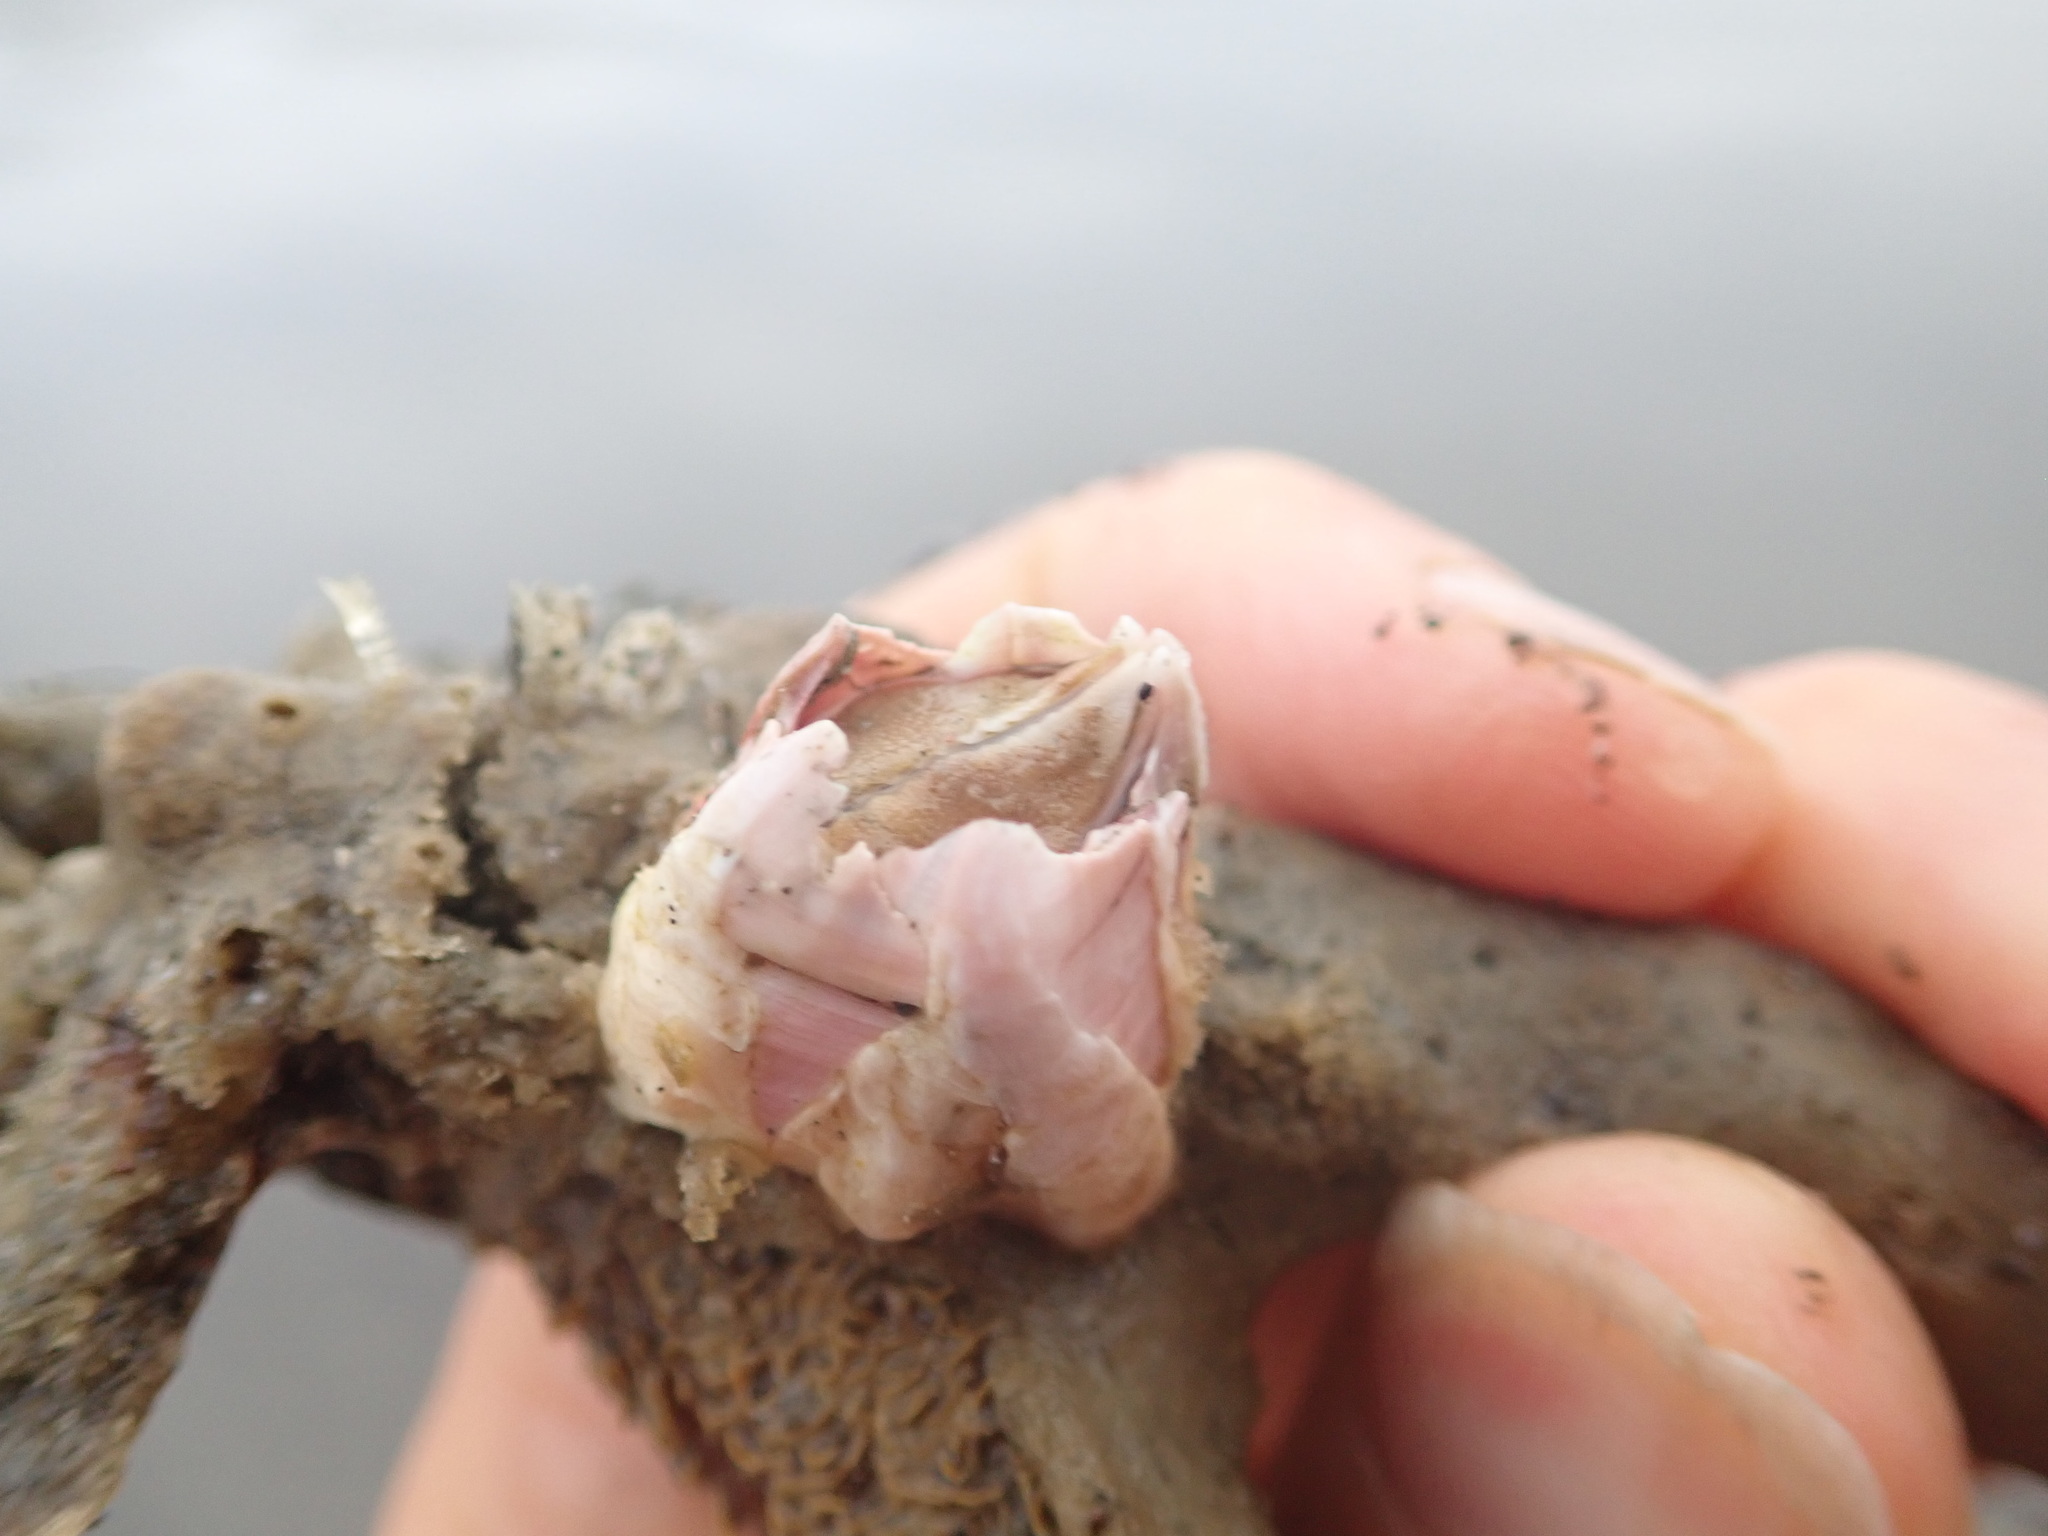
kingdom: Animalia
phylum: Arthropoda
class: Maxillopoda
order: Sessilia
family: Balanidae
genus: Notomegabalanus
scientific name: Notomegabalanus decorus
